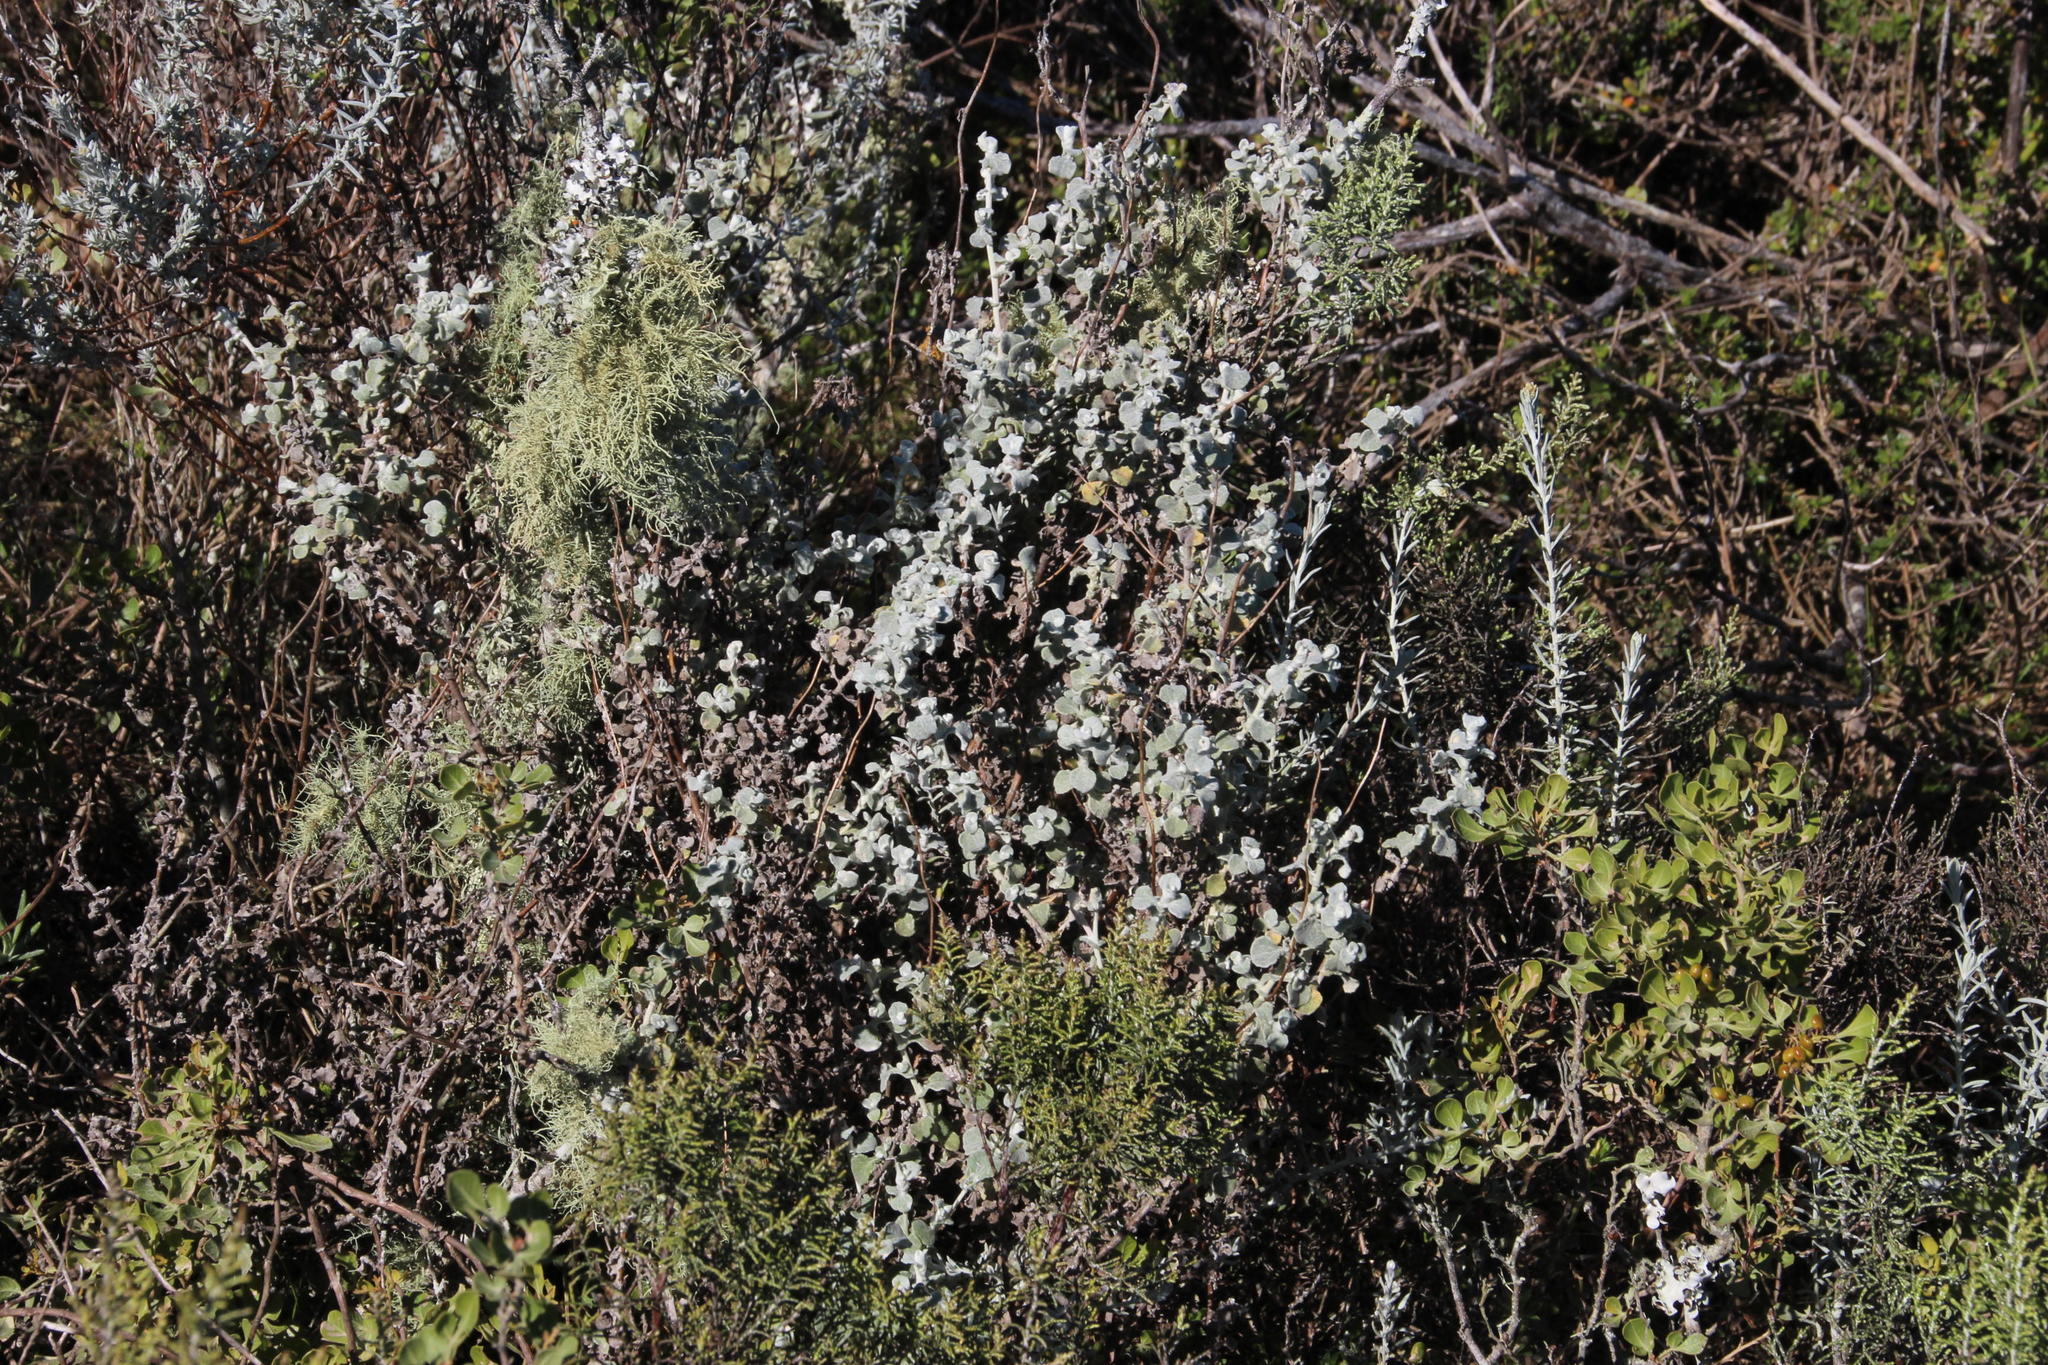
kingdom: Plantae
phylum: Tracheophyta
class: Magnoliopsida
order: Asterales
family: Asteraceae
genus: Helichrysum
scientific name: Helichrysum patulum
